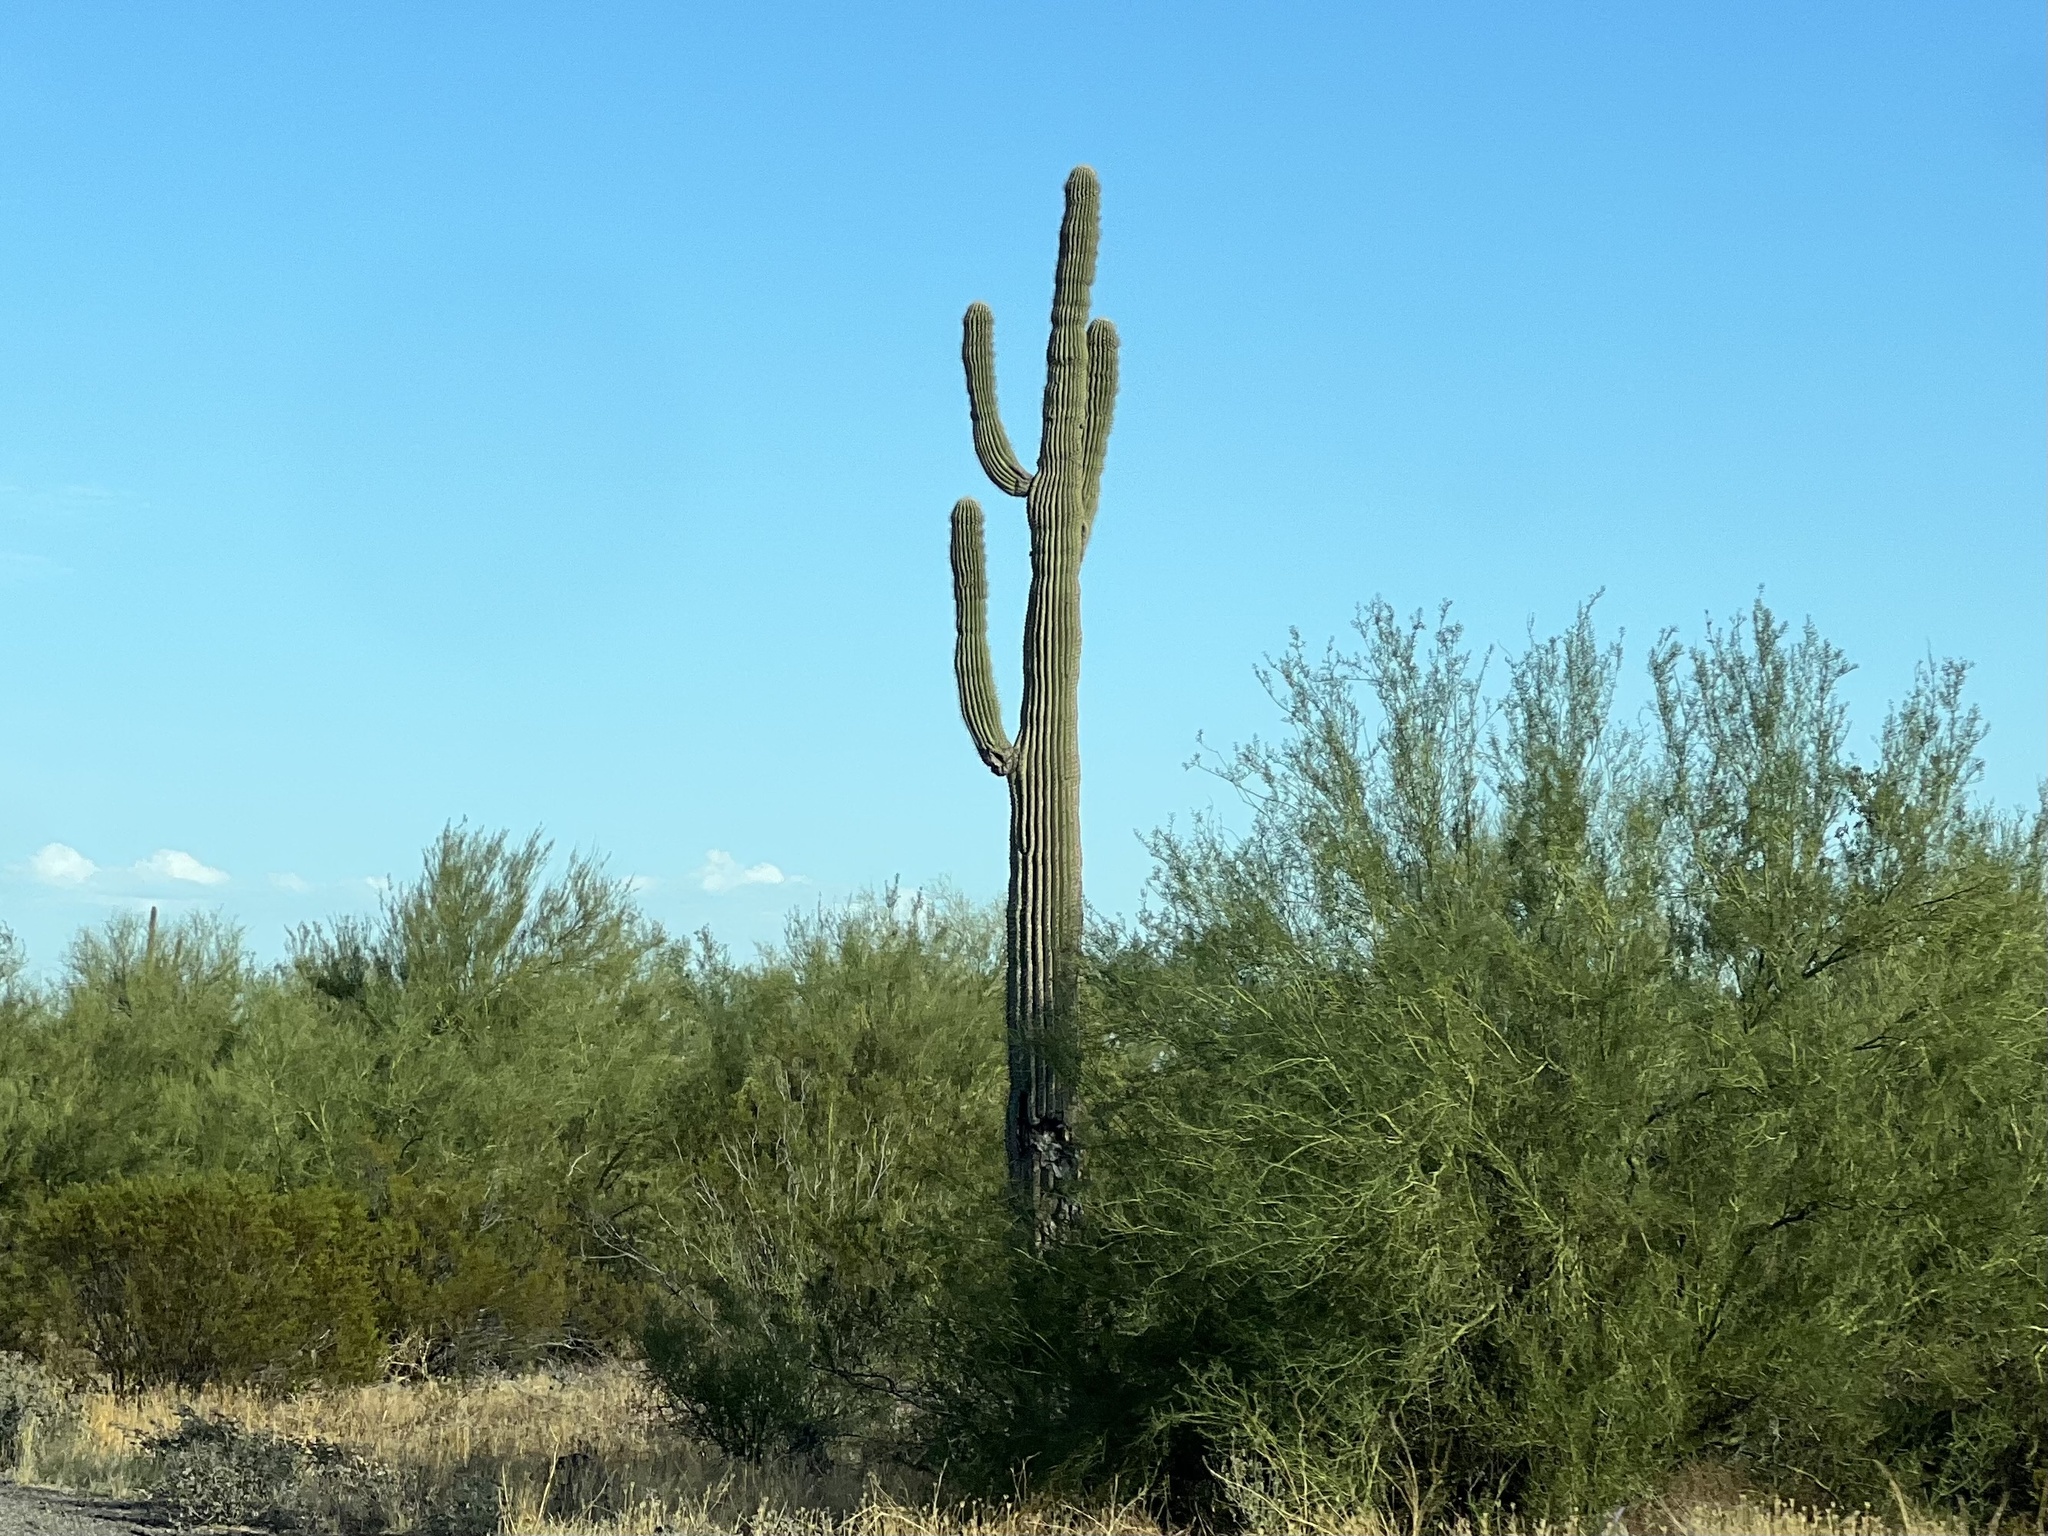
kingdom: Plantae
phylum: Tracheophyta
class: Magnoliopsida
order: Caryophyllales
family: Cactaceae
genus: Carnegiea
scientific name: Carnegiea gigantea
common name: Saguaro
